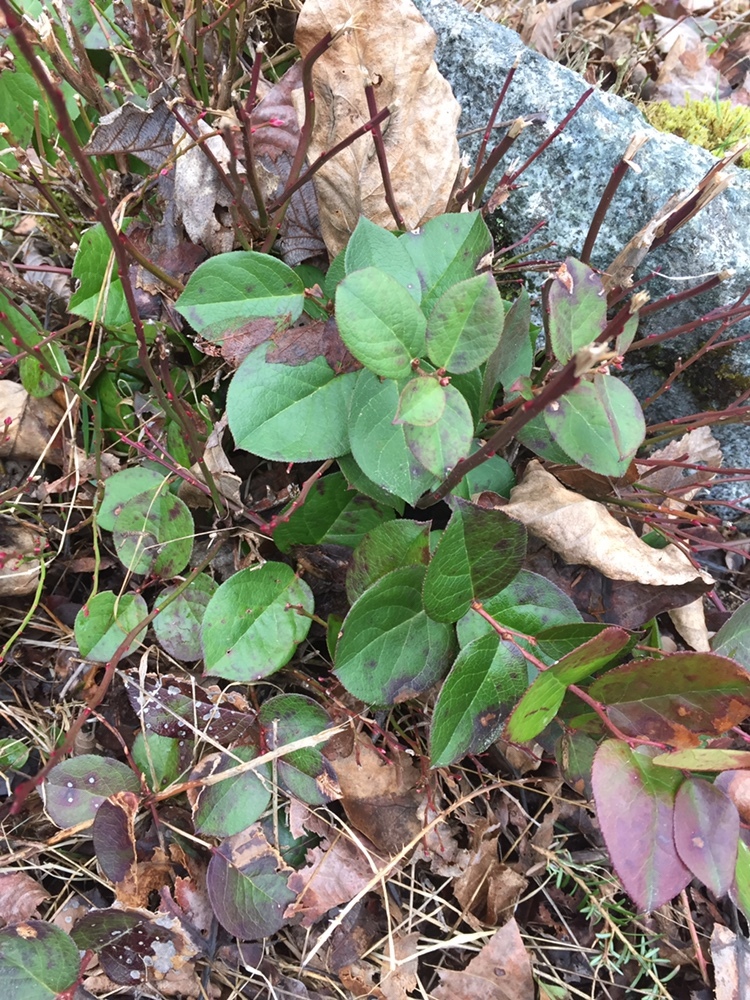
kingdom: Plantae
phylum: Tracheophyta
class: Magnoliopsida
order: Ericales
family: Ericaceae
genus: Gaultheria
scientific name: Gaultheria shallon
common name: Shallon
